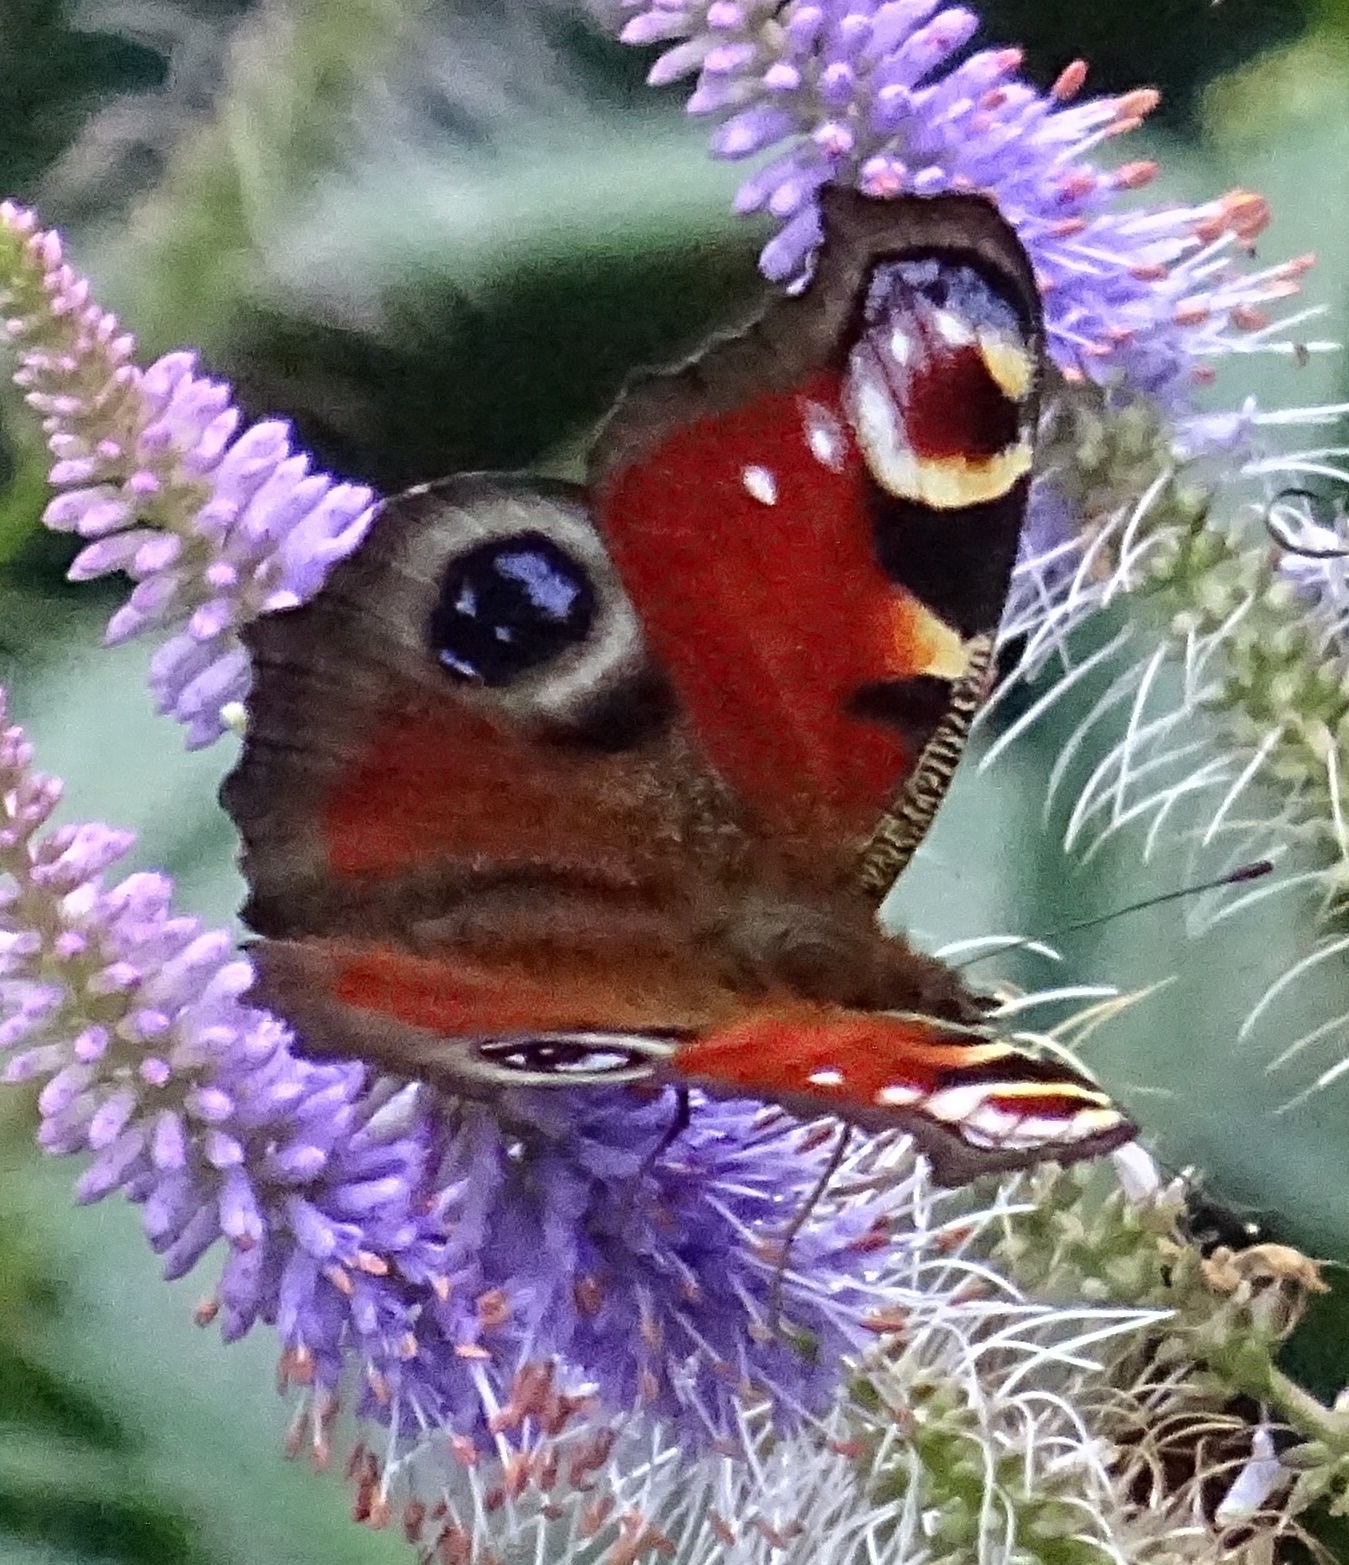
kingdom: Animalia
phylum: Arthropoda
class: Insecta
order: Lepidoptera
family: Nymphalidae
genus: Aglais
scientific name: Aglais io
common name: Peacock
